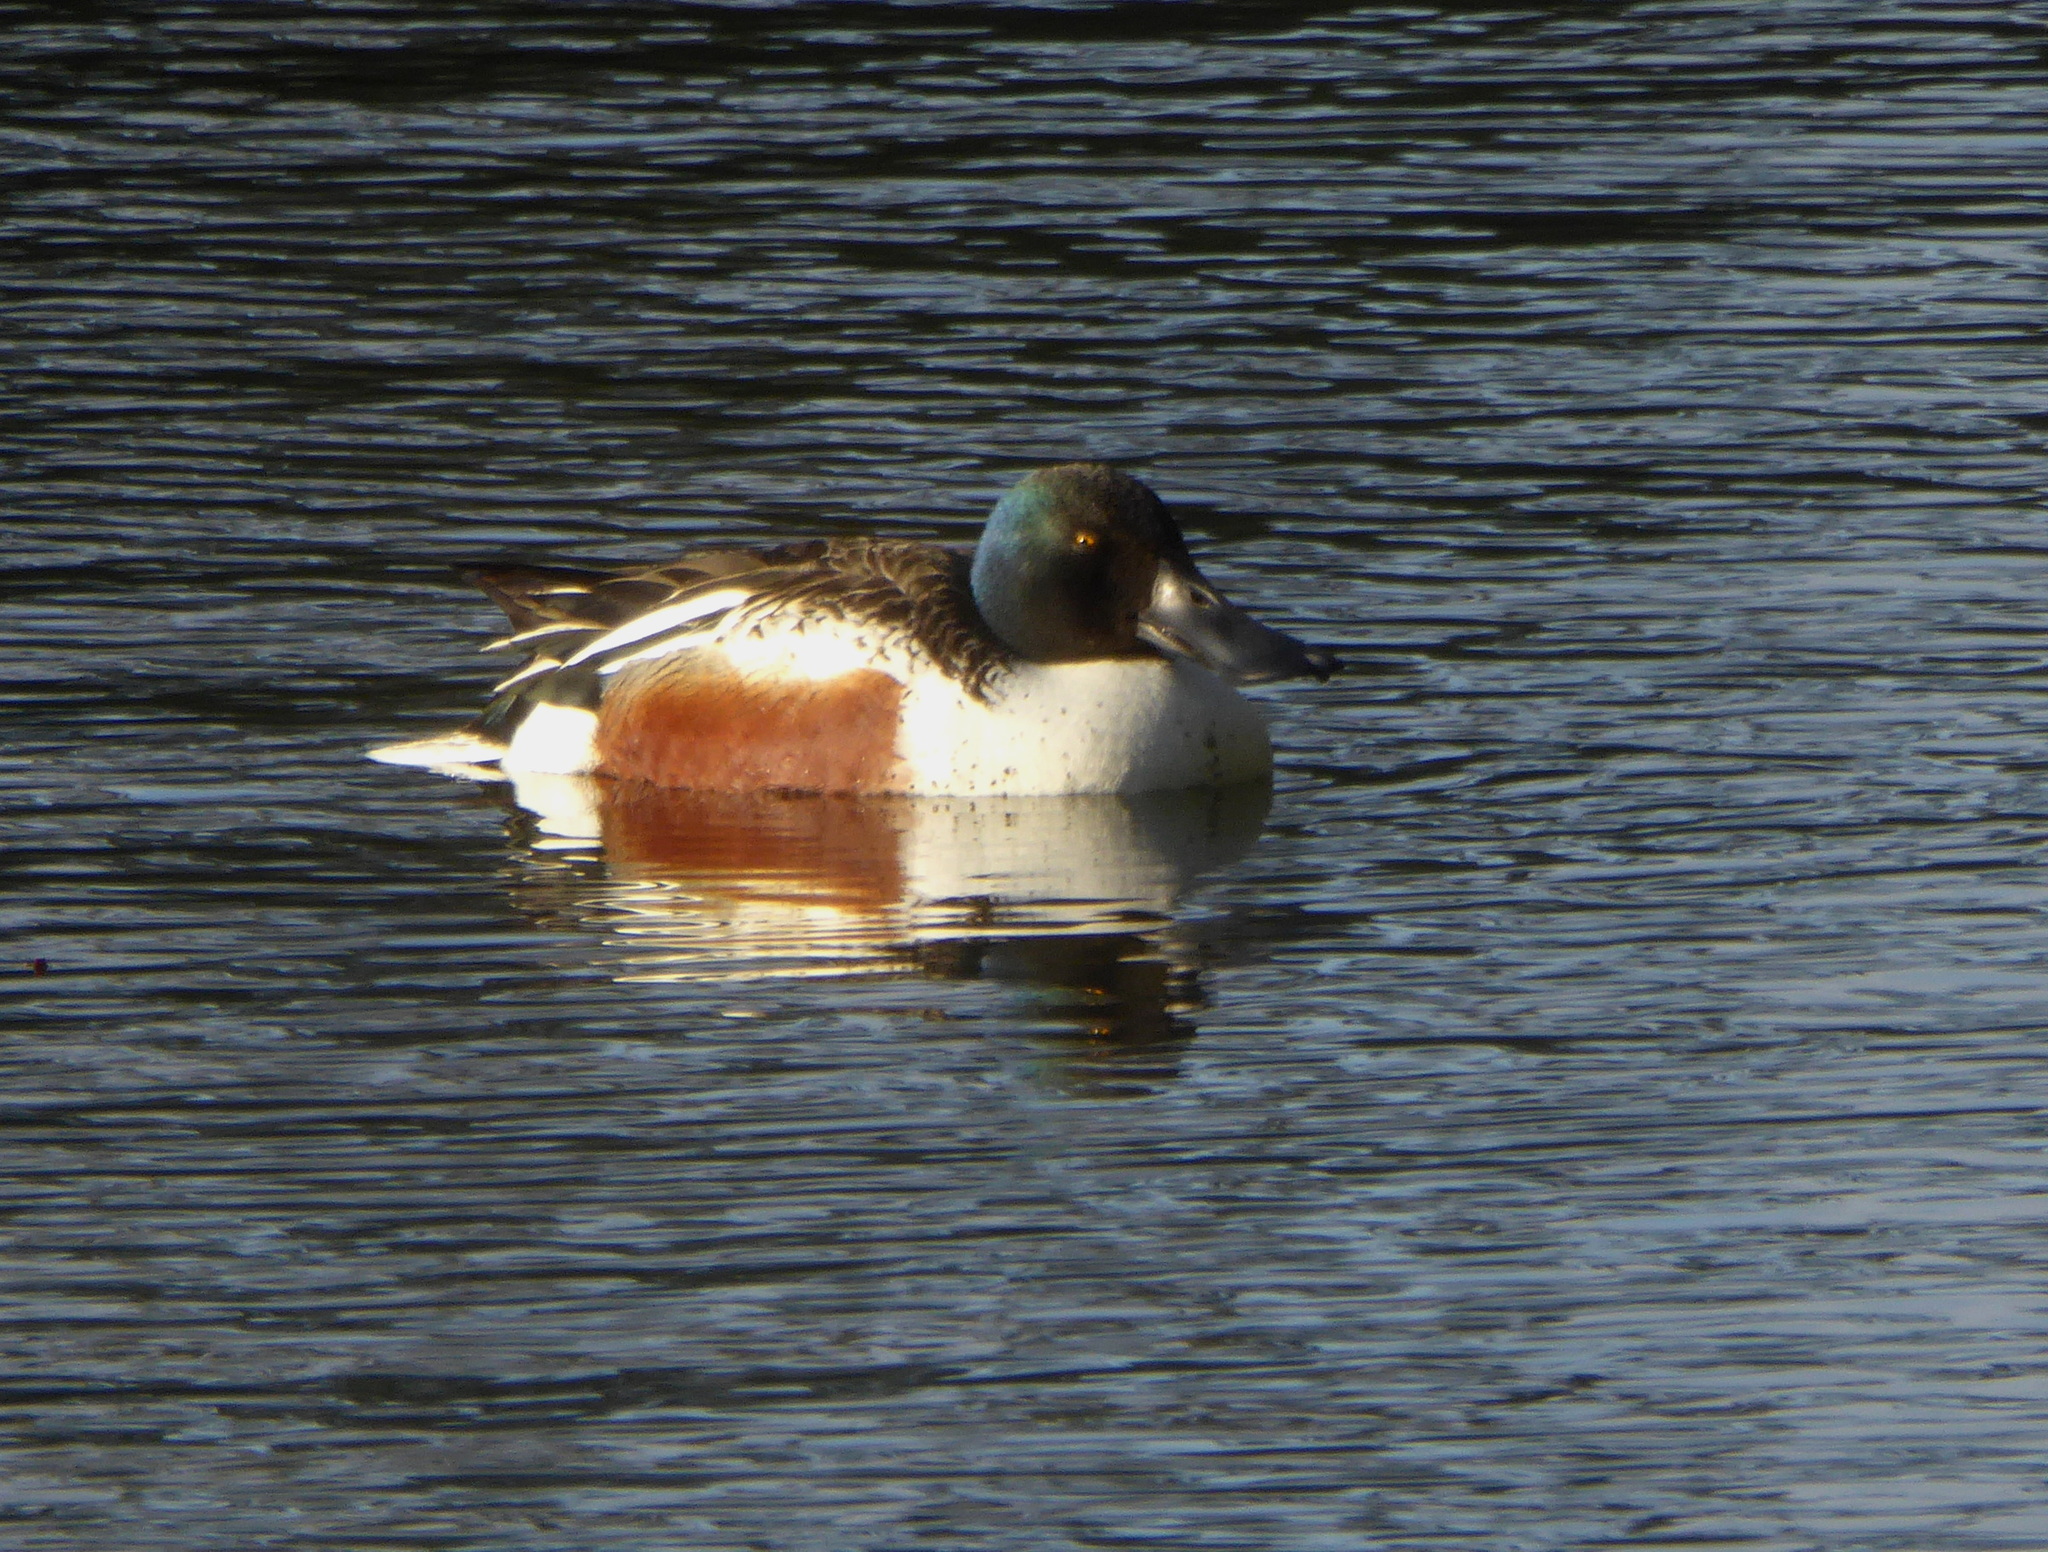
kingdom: Animalia
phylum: Chordata
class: Aves
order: Anseriformes
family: Anatidae
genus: Spatula
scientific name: Spatula clypeata
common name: Northern shoveler
